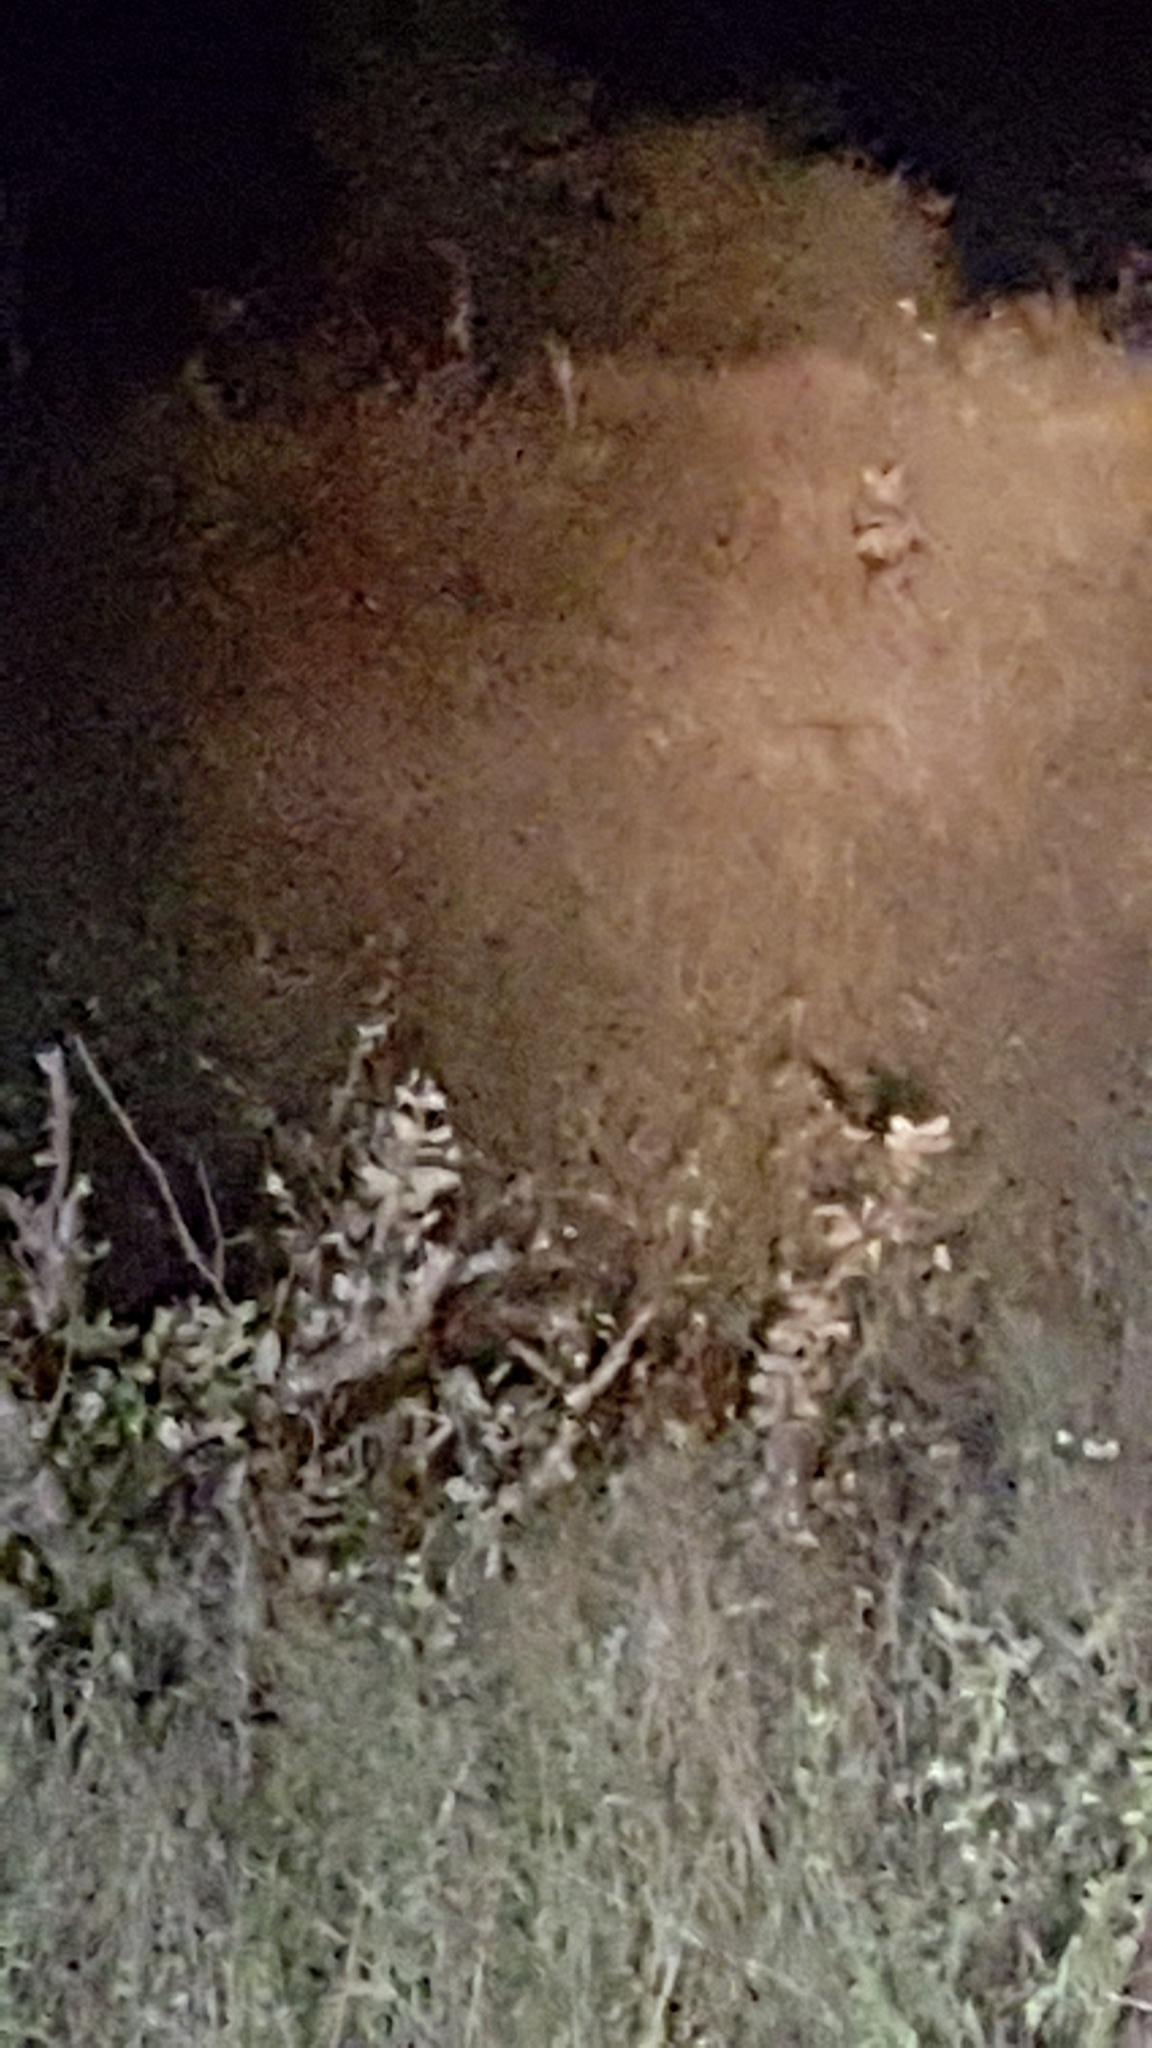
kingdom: Animalia
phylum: Chordata
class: Mammalia
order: Carnivora
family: Canidae
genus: Lupulella
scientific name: Lupulella
